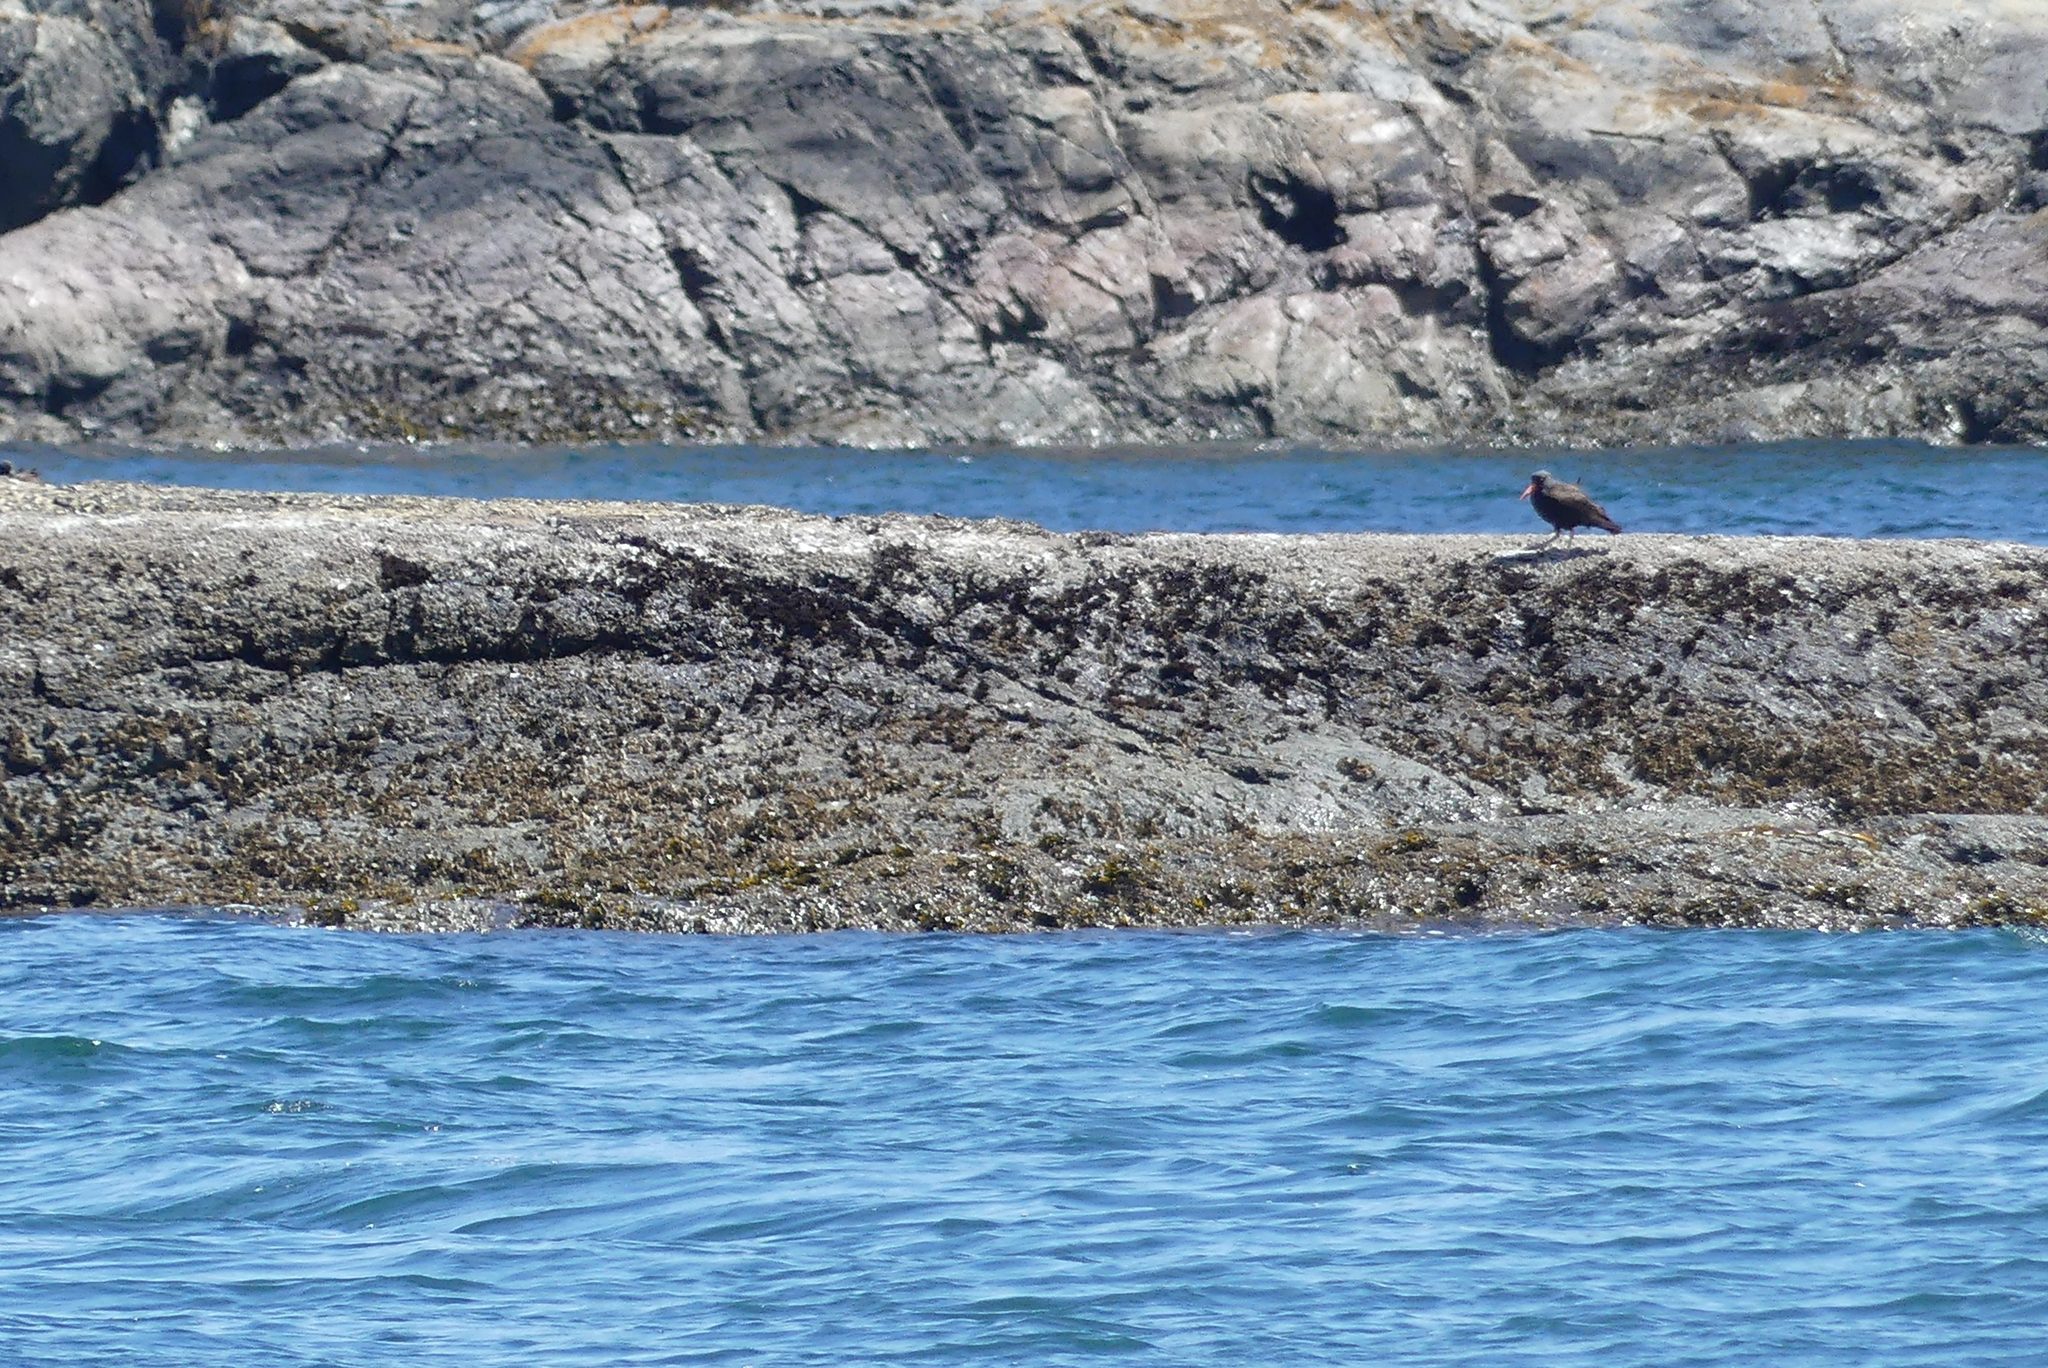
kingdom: Animalia
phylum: Chordata
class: Aves
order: Charadriiformes
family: Haematopodidae
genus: Haematopus
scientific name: Haematopus bachmani
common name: Black oystercatcher
